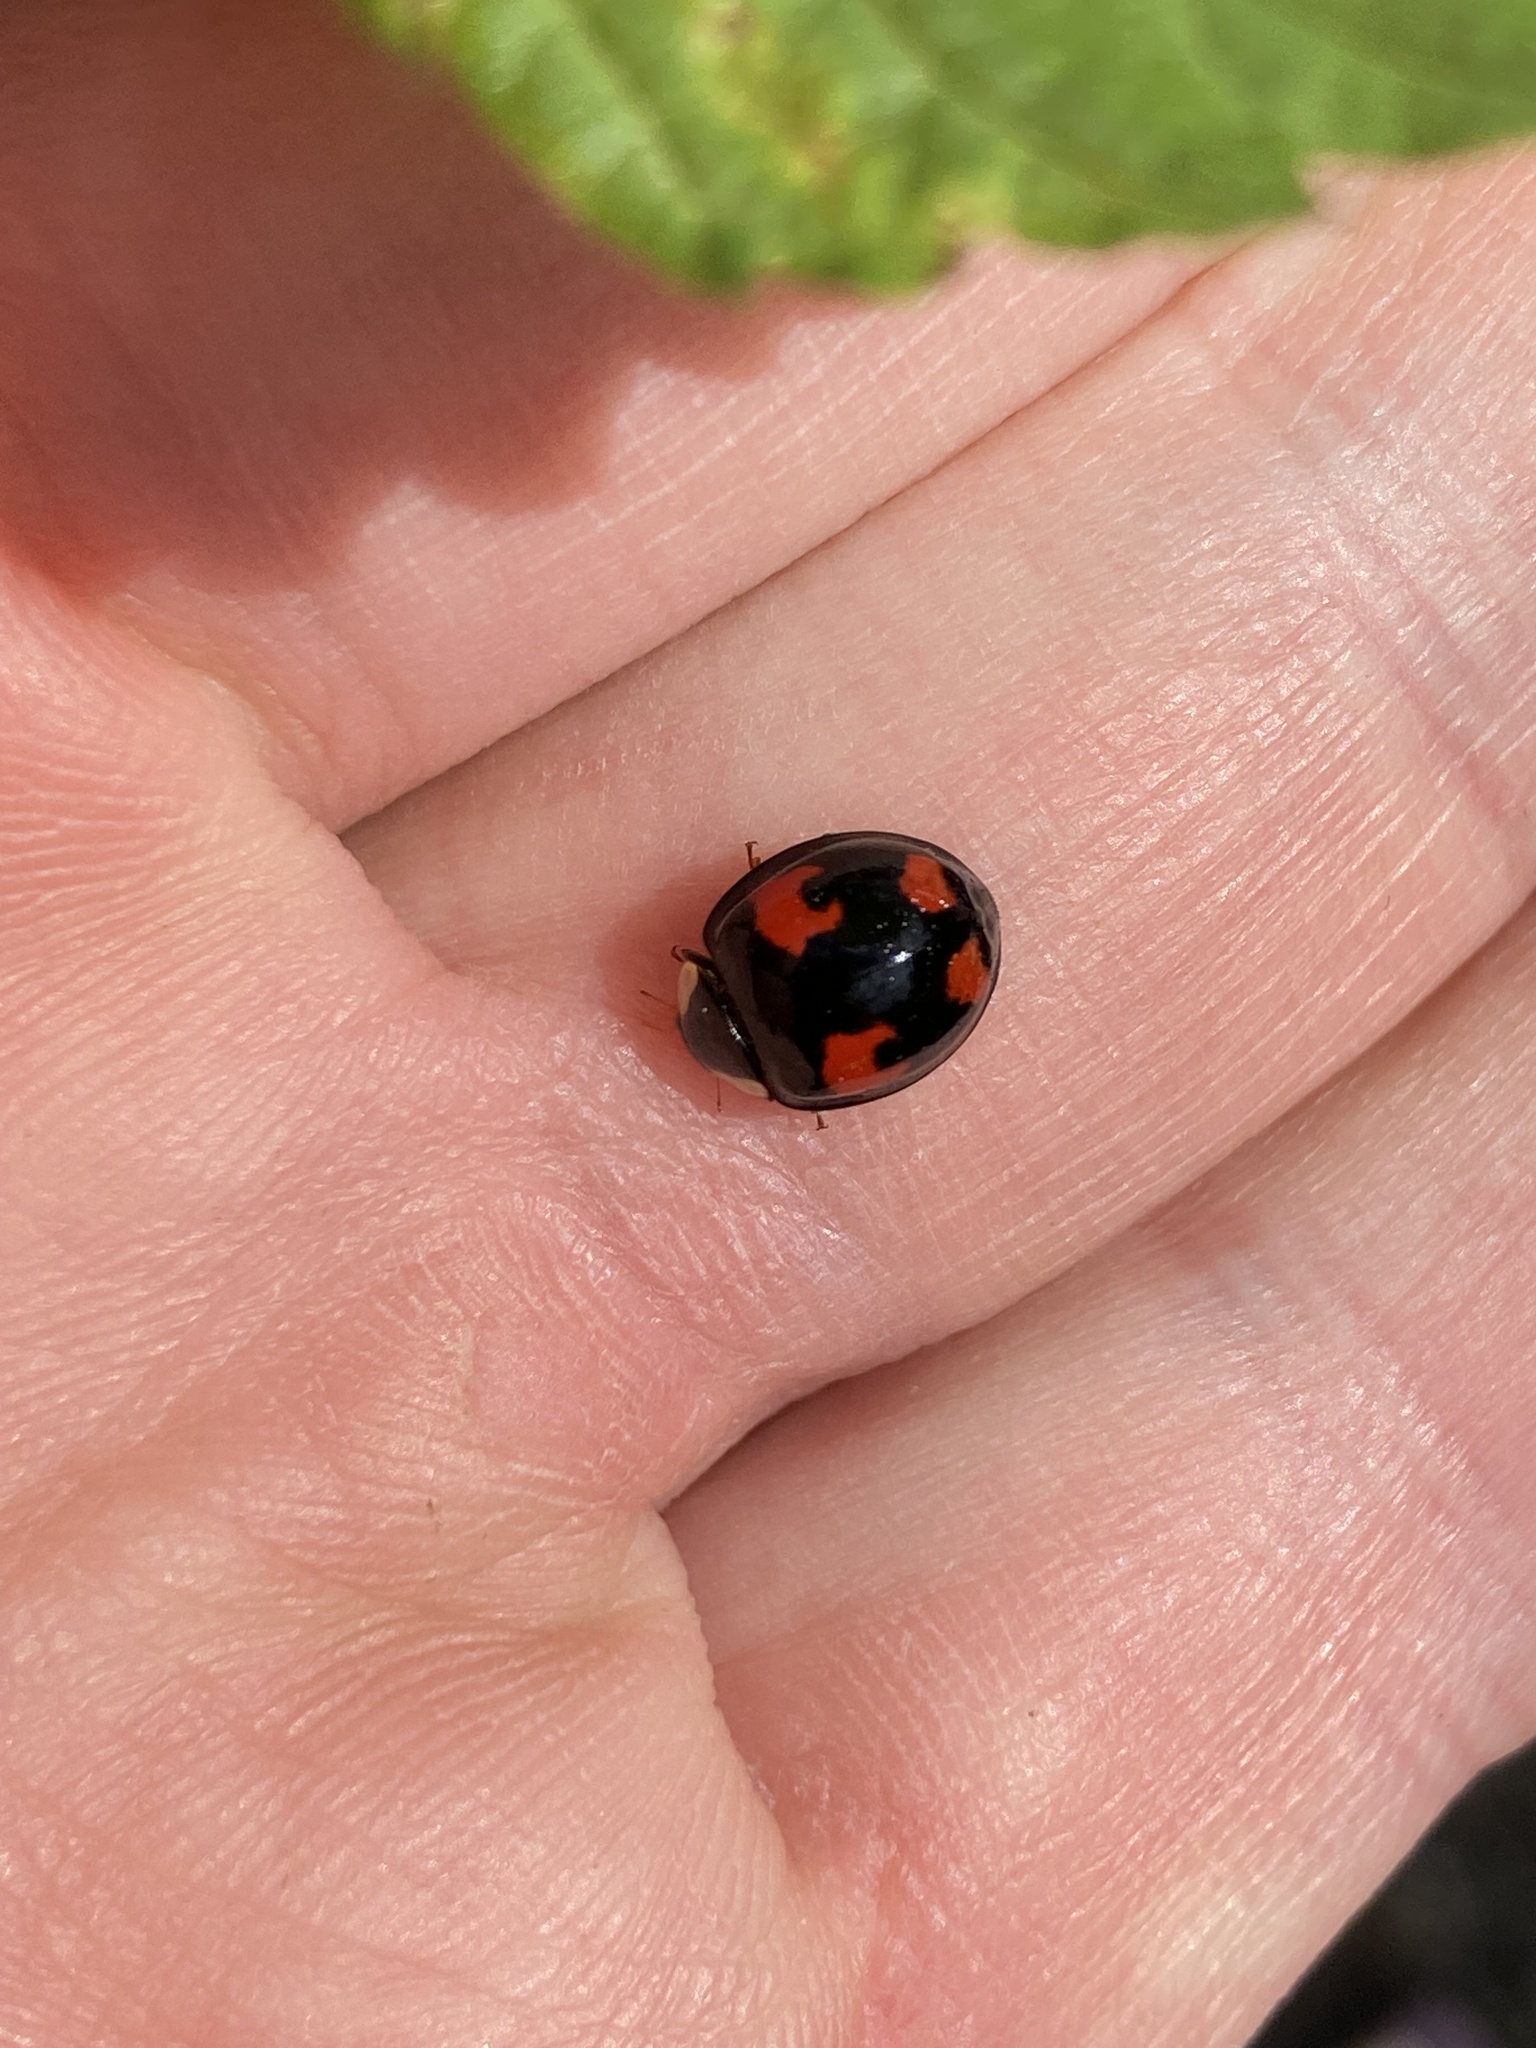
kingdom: Animalia
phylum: Arthropoda
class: Insecta
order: Coleoptera
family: Coccinellidae
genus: Harmonia
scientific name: Harmonia axyridis
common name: Harlequin ladybird
